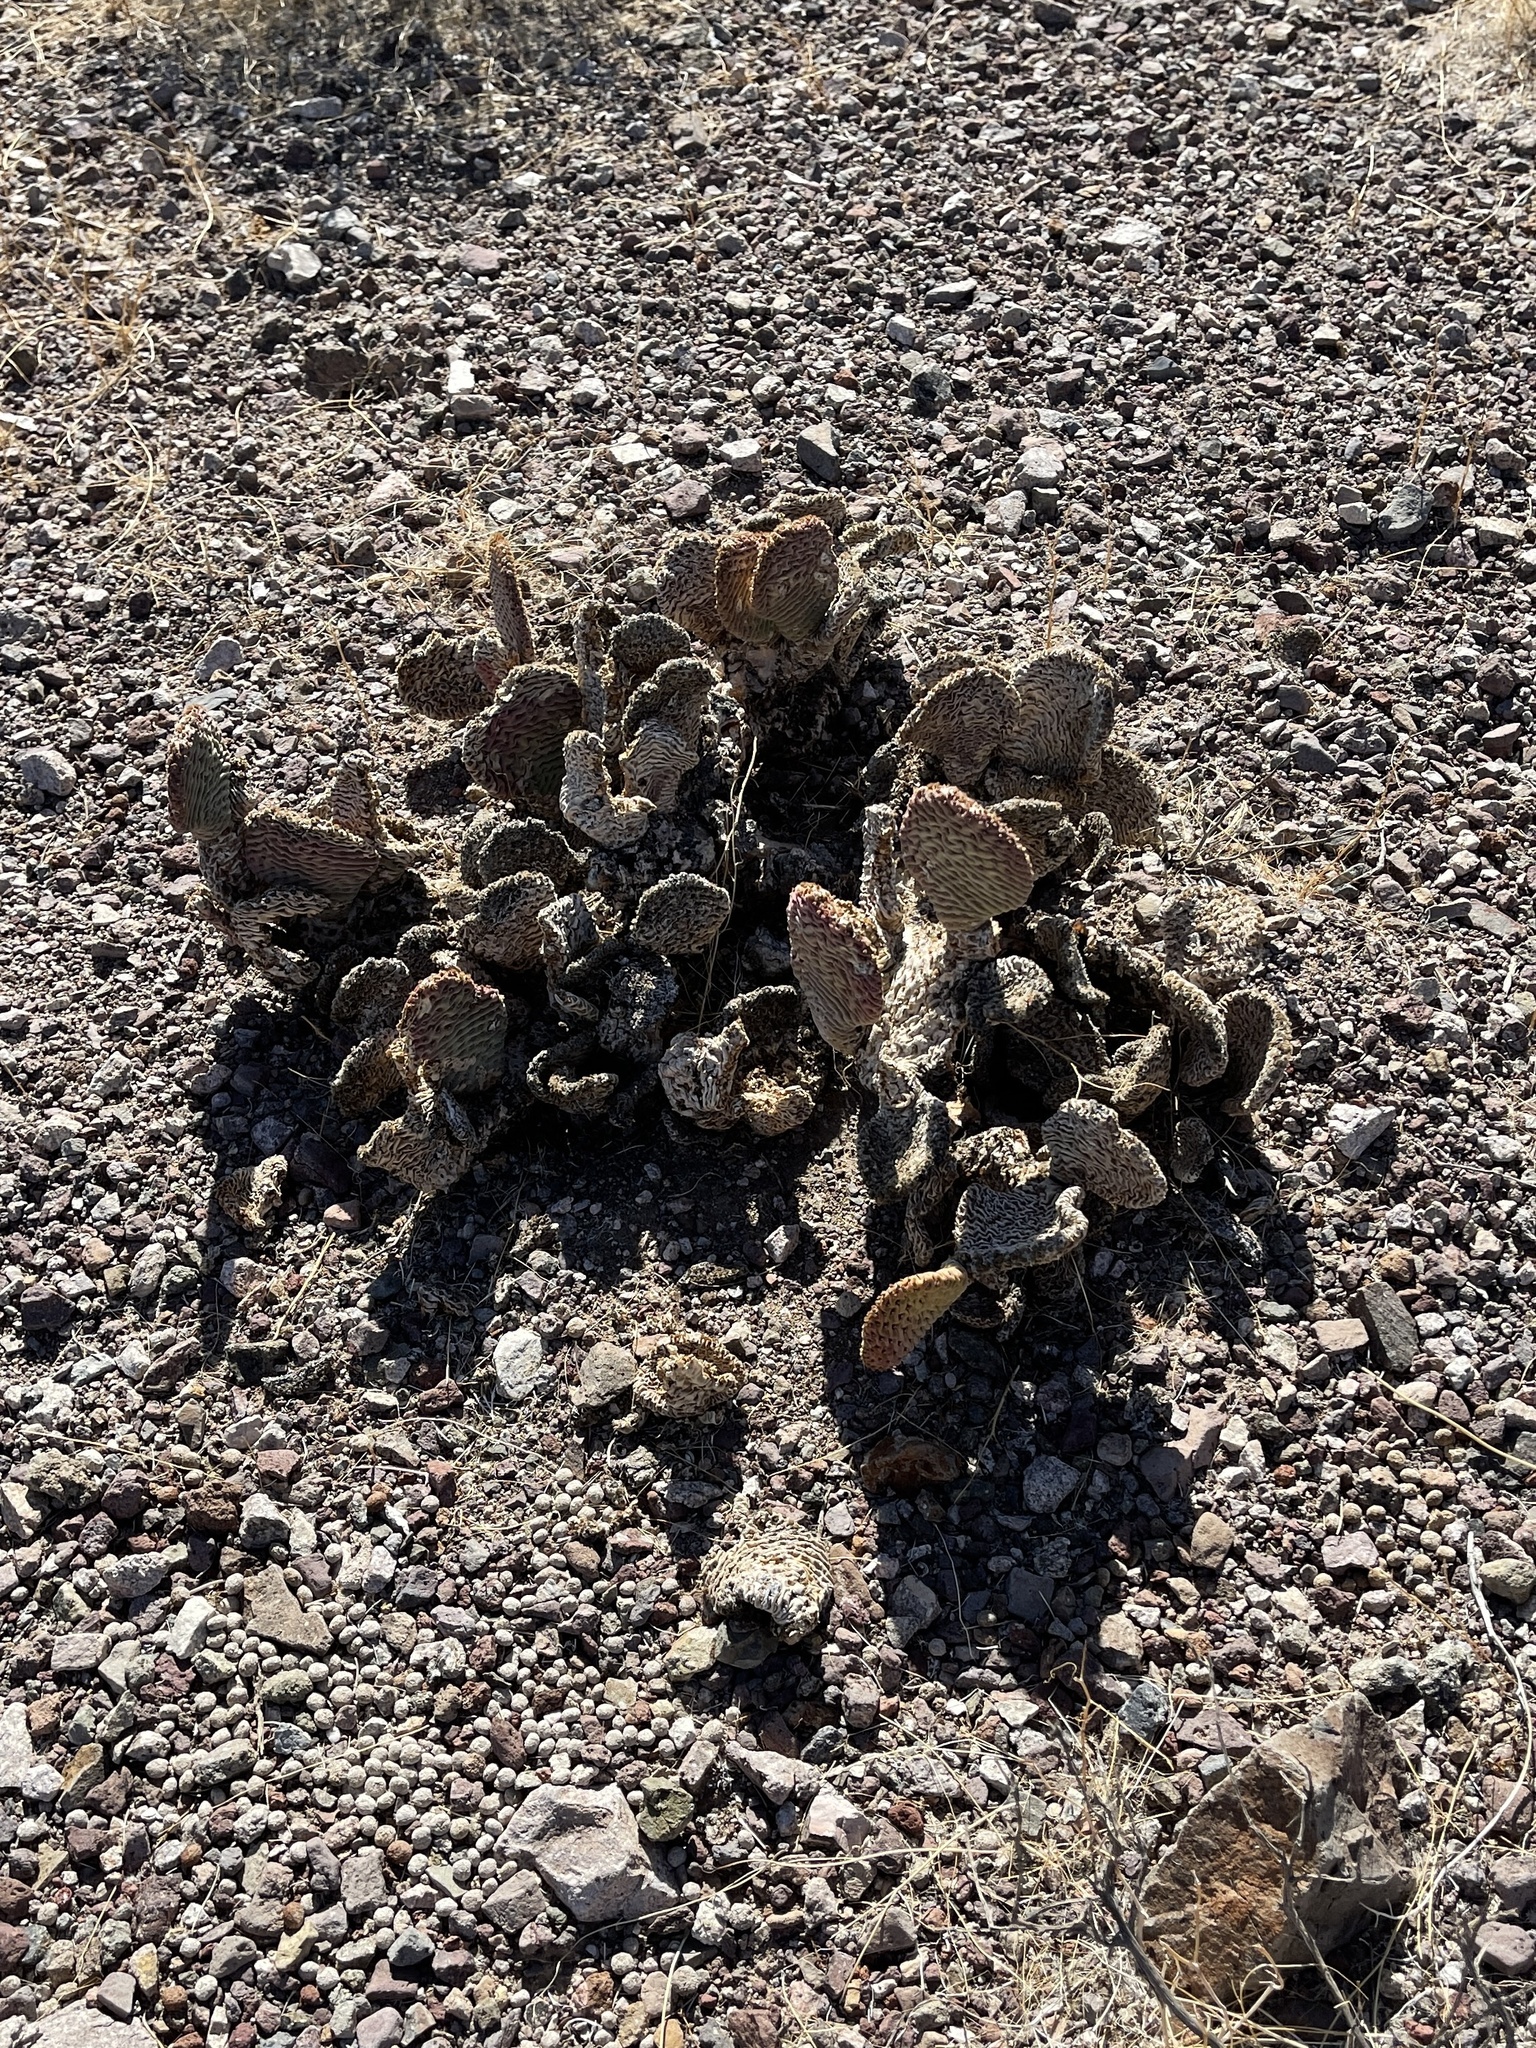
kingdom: Plantae
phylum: Tracheophyta
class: Magnoliopsida
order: Caryophyllales
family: Cactaceae
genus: Opuntia
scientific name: Opuntia basilaris
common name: Beavertail prickly-pear
